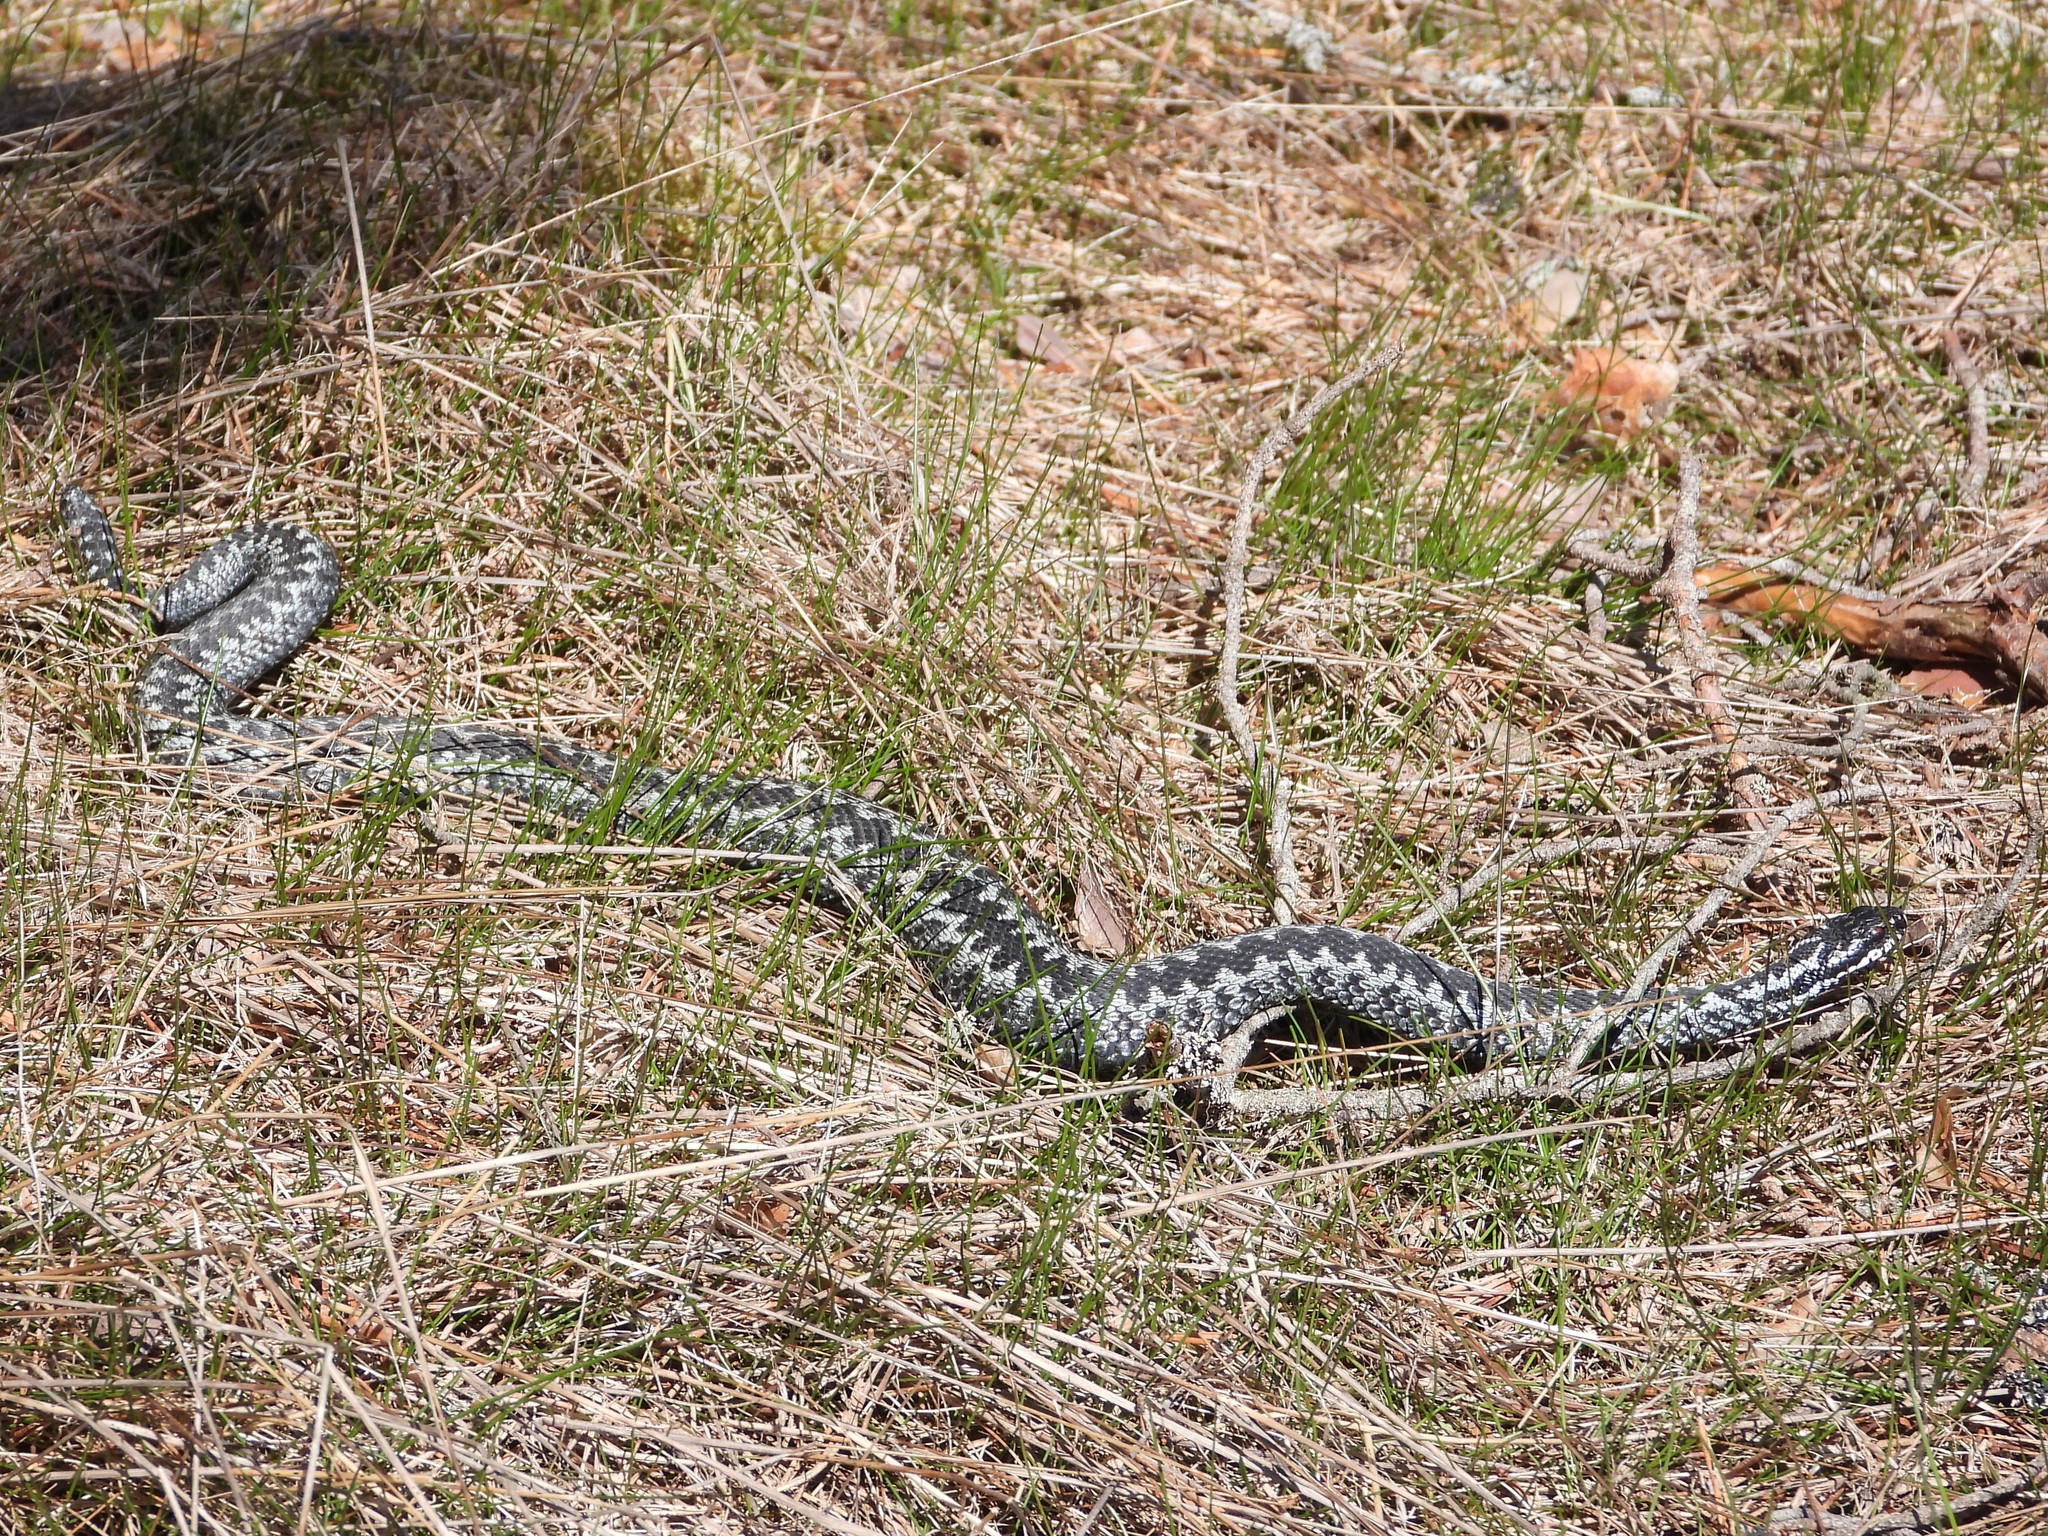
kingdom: Animalia
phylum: Chordata
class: Squamata
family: Viperidae
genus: Vipera
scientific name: Vipera berus
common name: Adder
